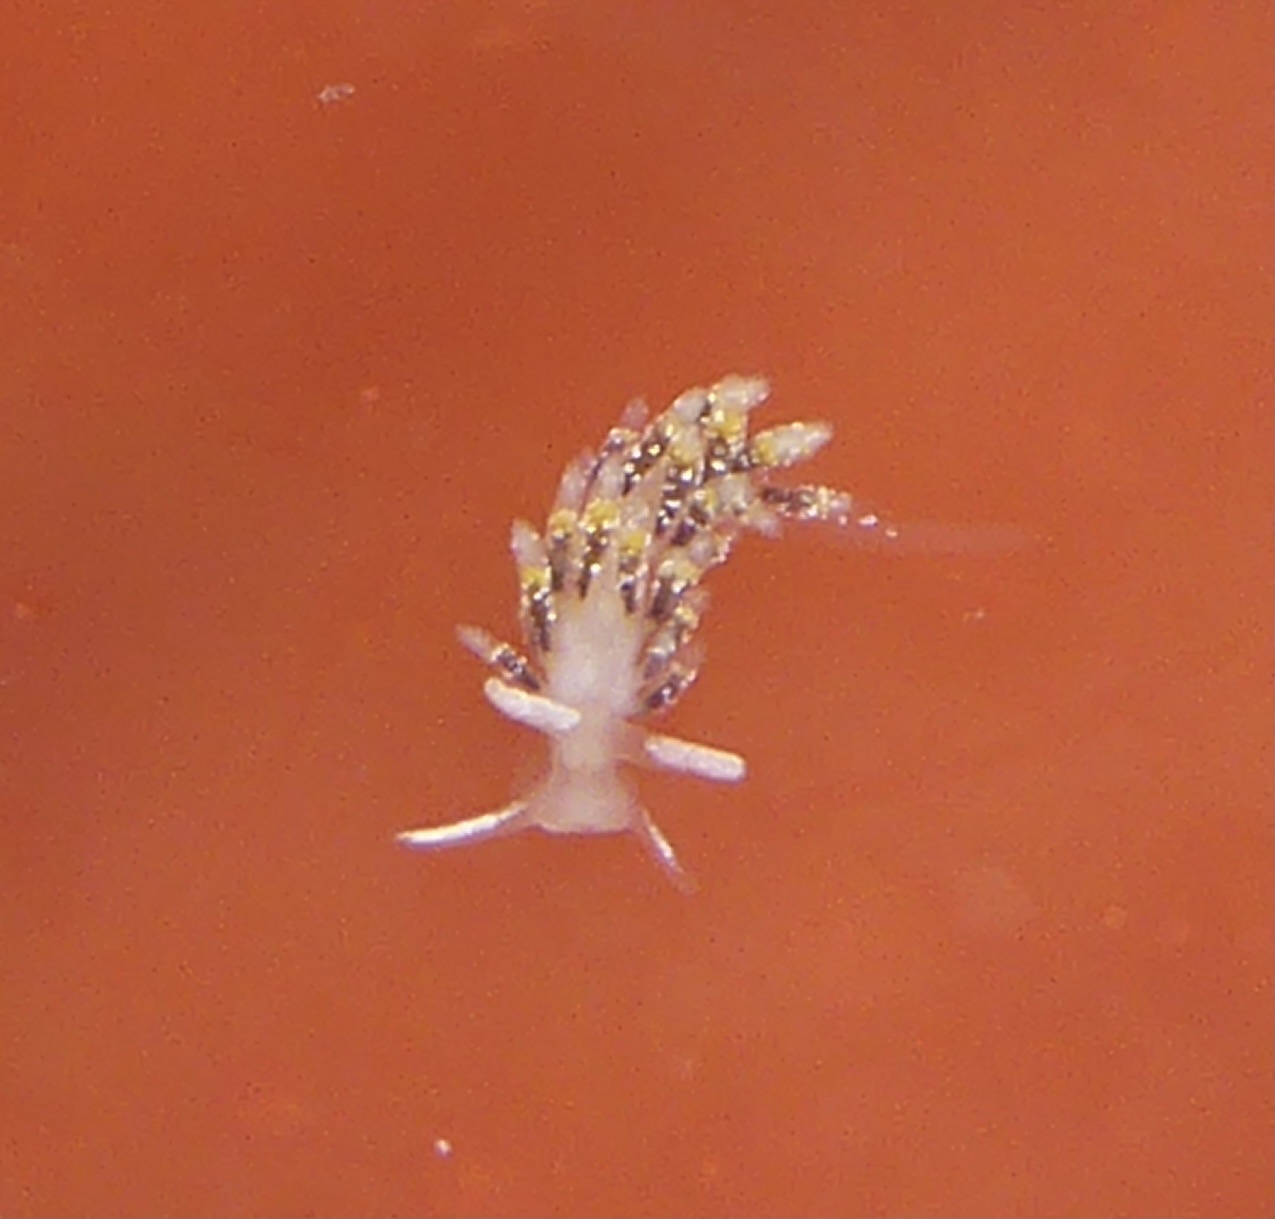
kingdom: Animalia
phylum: Mollusca
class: Gastropoda
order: Nudibranchia
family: Trinchesiidae
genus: Zelentia
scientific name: Zelentia fulgens
